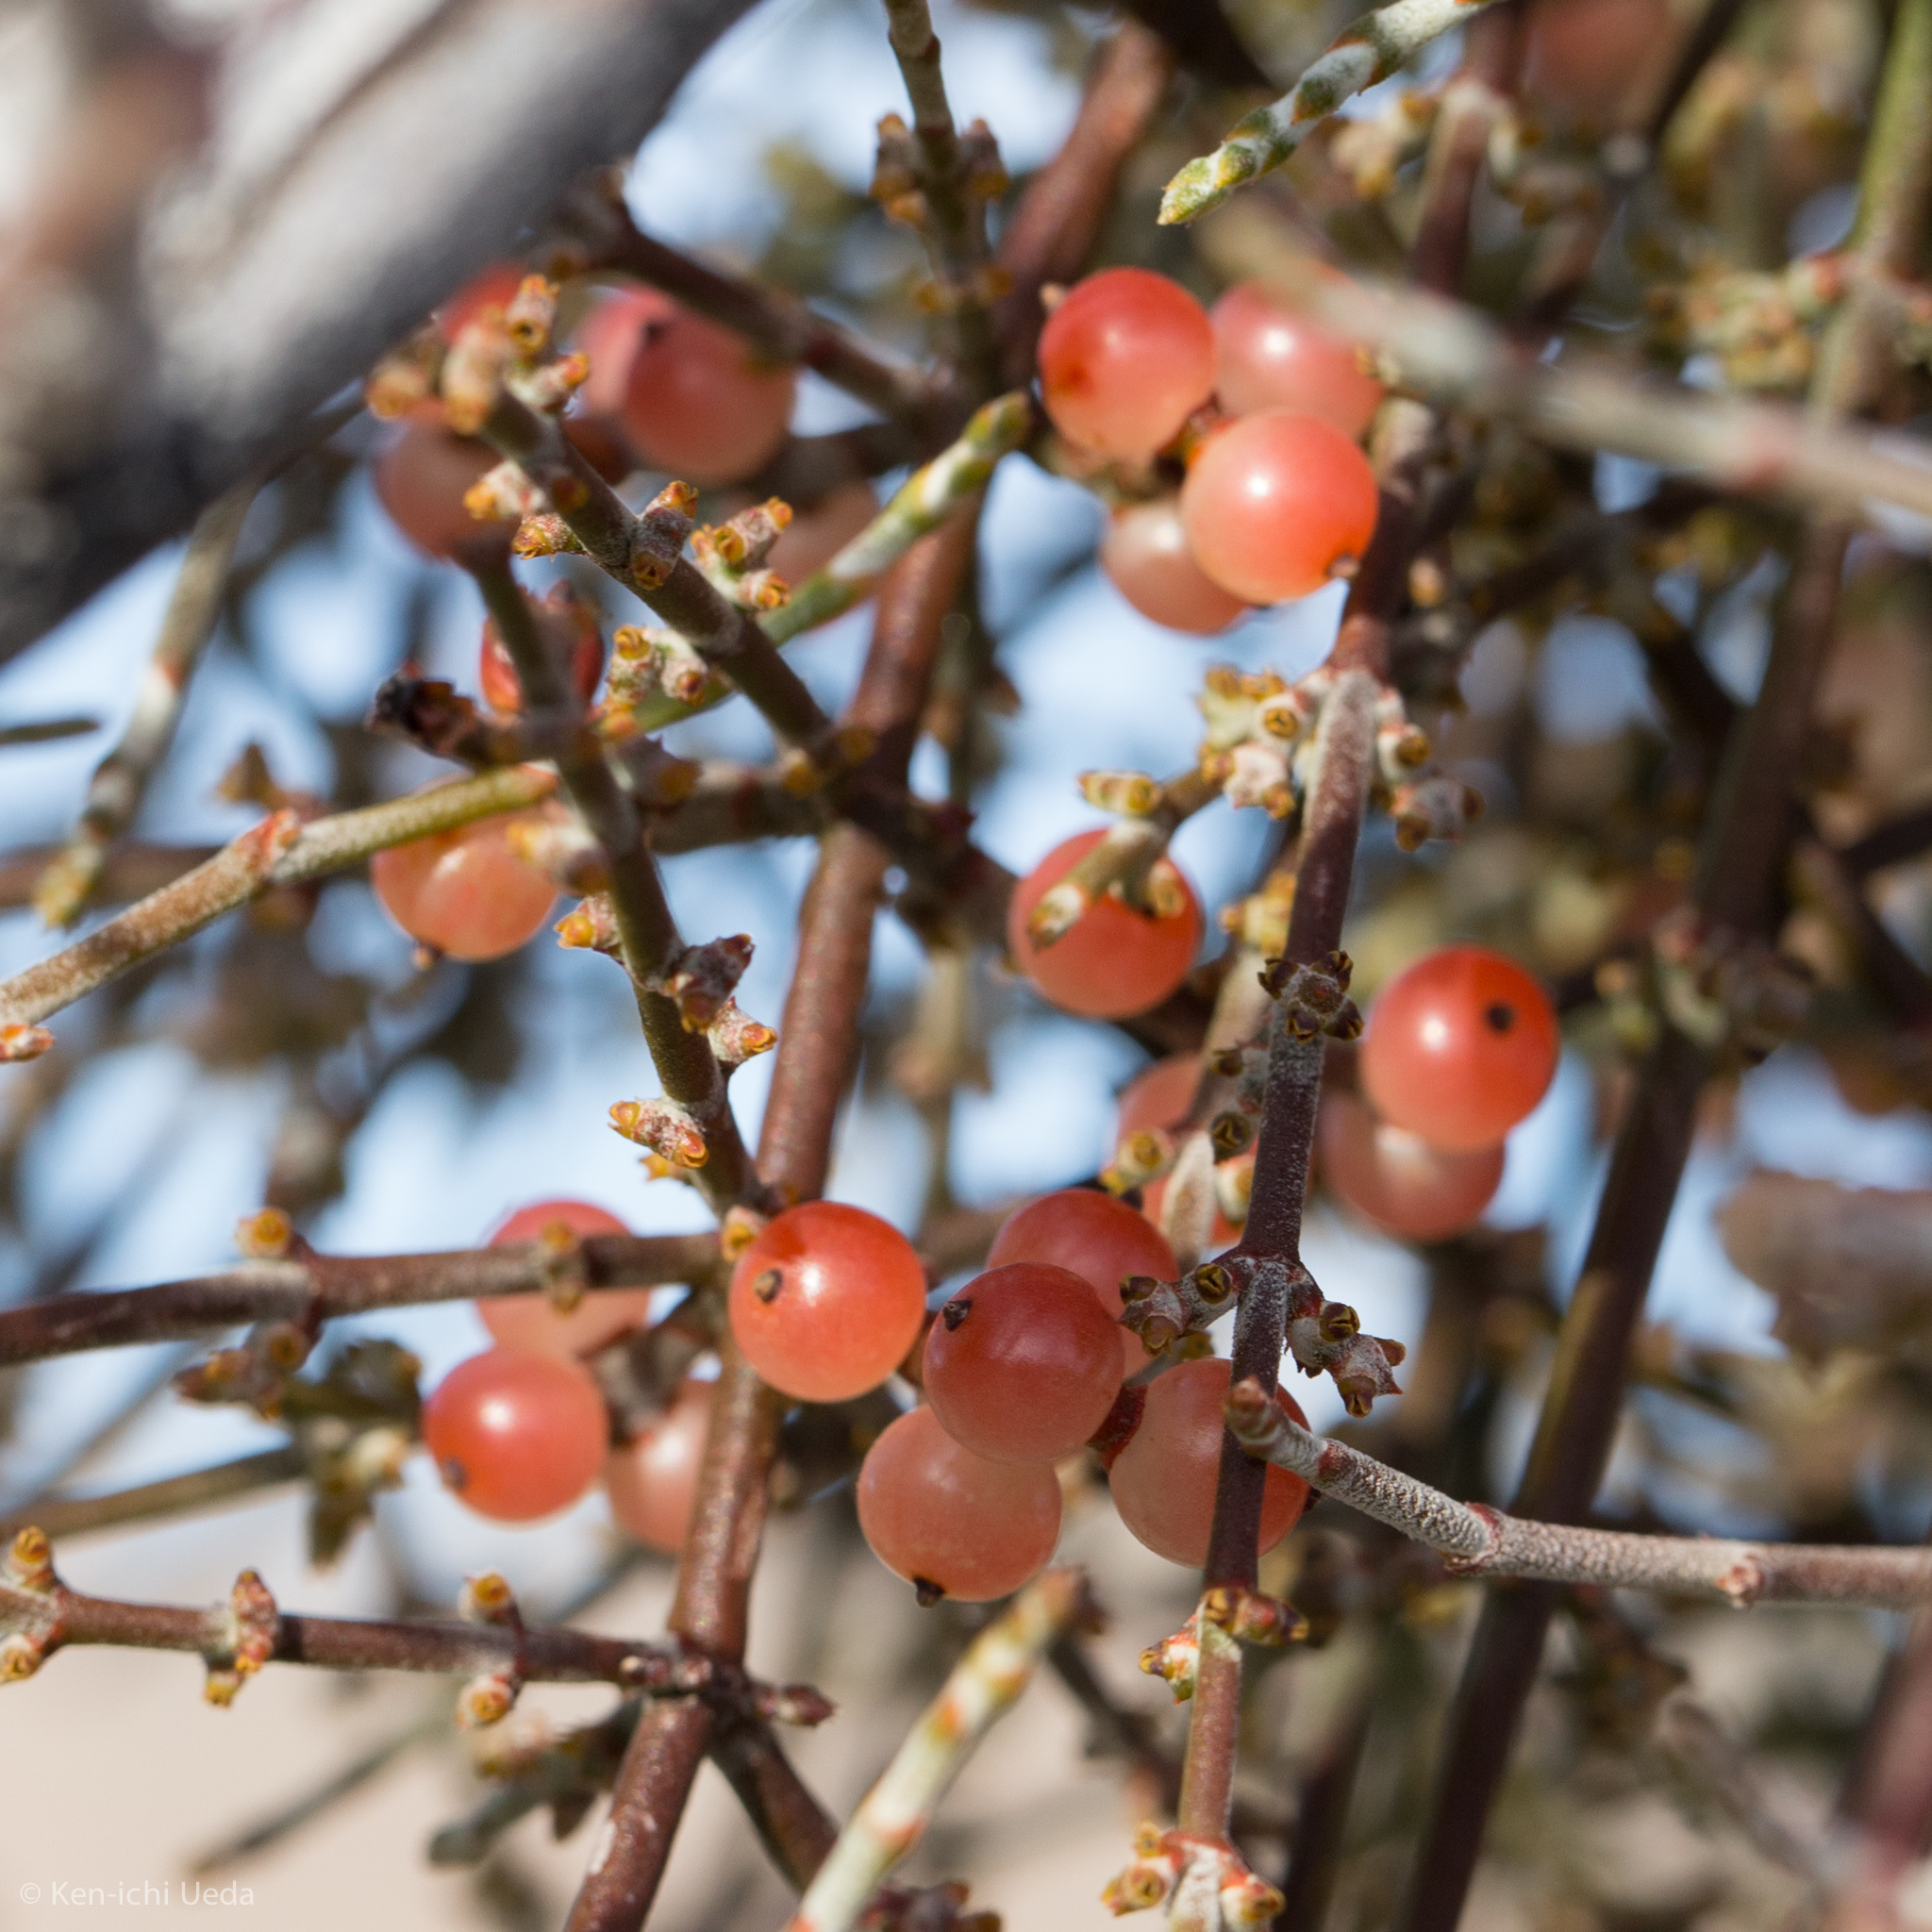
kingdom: Plantae
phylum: Tracheophyta
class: Magnoliopsida
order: Santalales
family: Viscaceae
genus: Phoradendron
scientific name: Phoradendron californicum
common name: Acacia mistletoe
